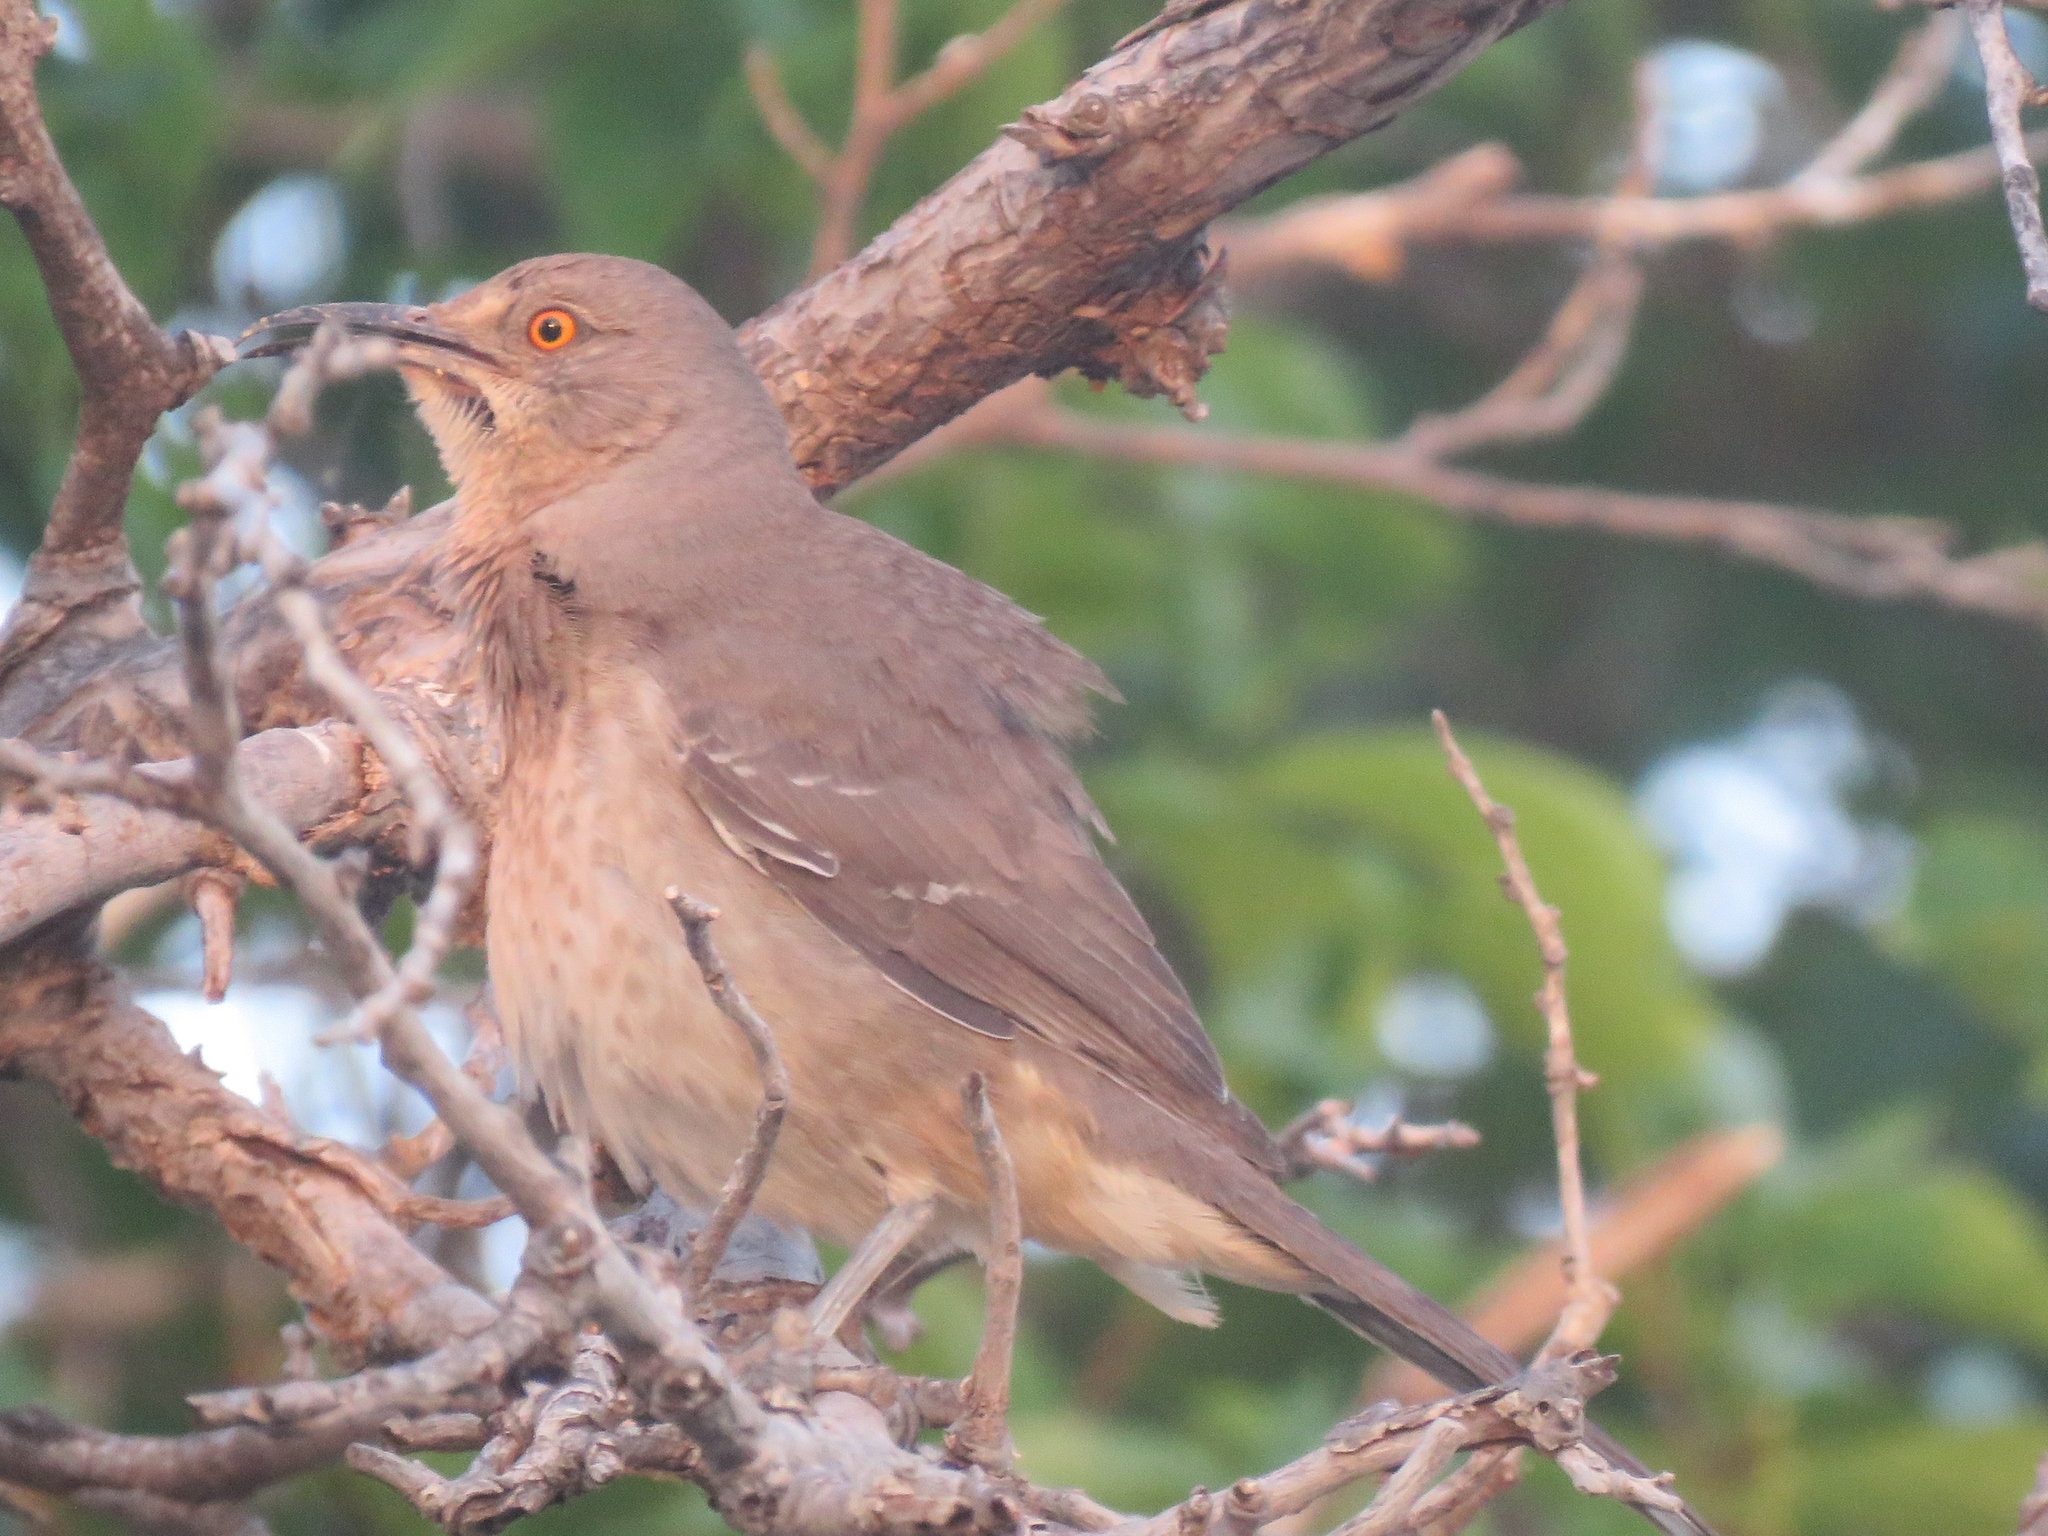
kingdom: Animalia
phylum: Chordata
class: Aves
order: Passeriformes
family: Mimidae
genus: Toxostoma
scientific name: Toxostoma curvirostre
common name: Curve-billed thrasher
